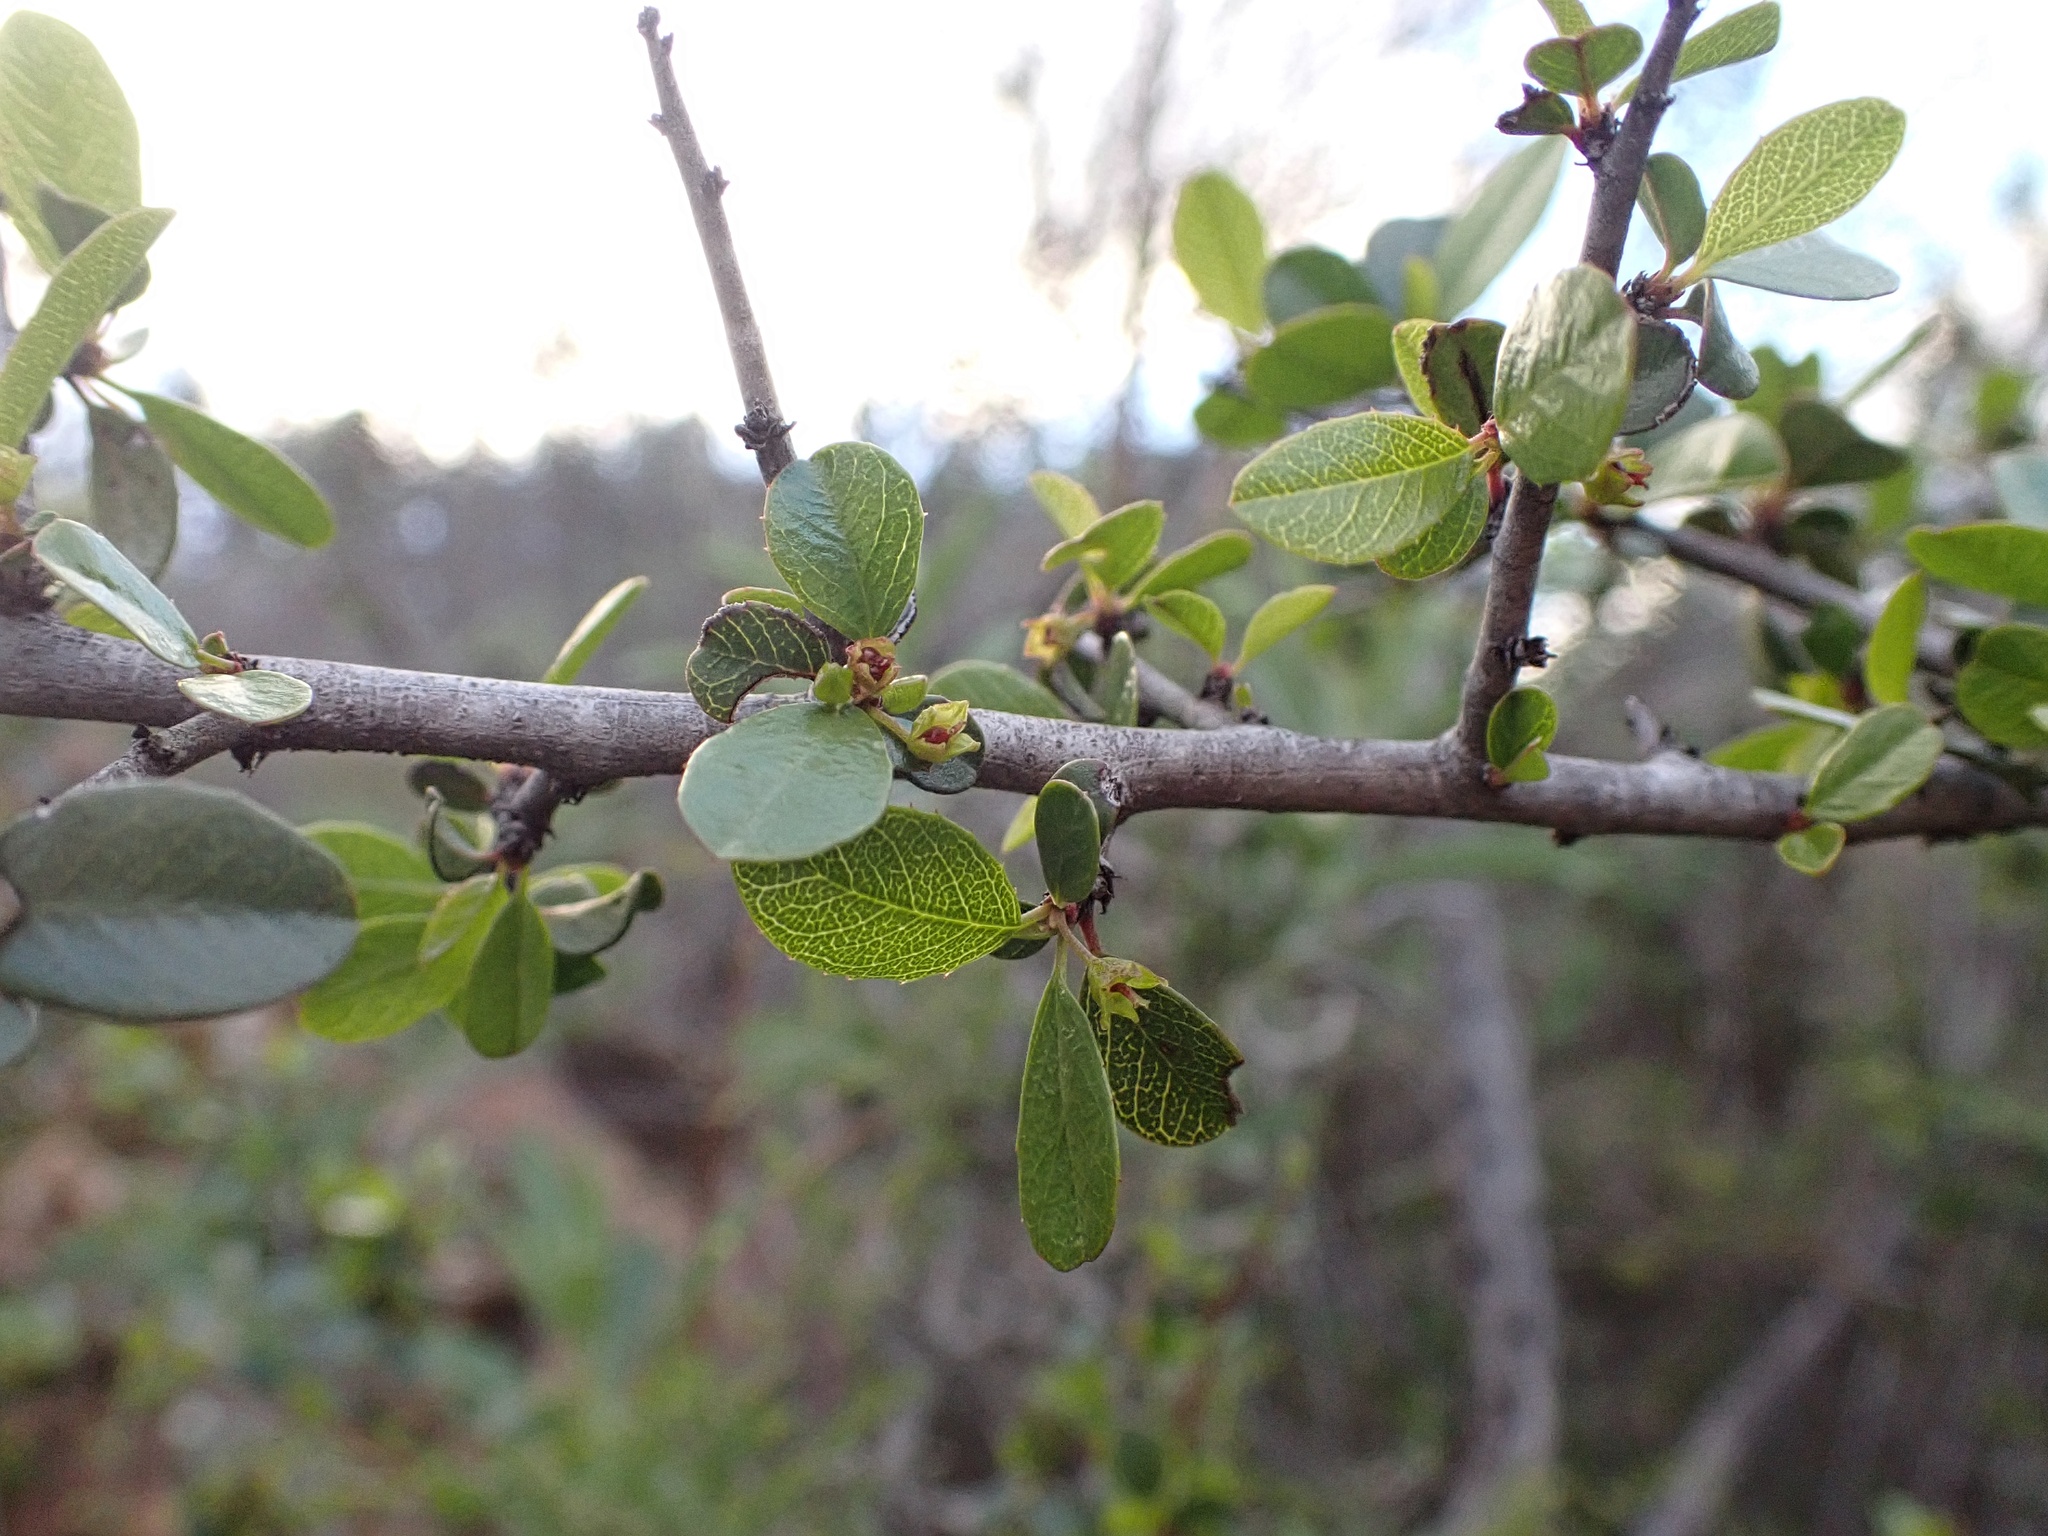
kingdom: Plantae
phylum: Tracheophyta
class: Magnoliopsida
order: Rosales
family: Rhamnaceae
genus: Endotropis
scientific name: Endotropis crocea
